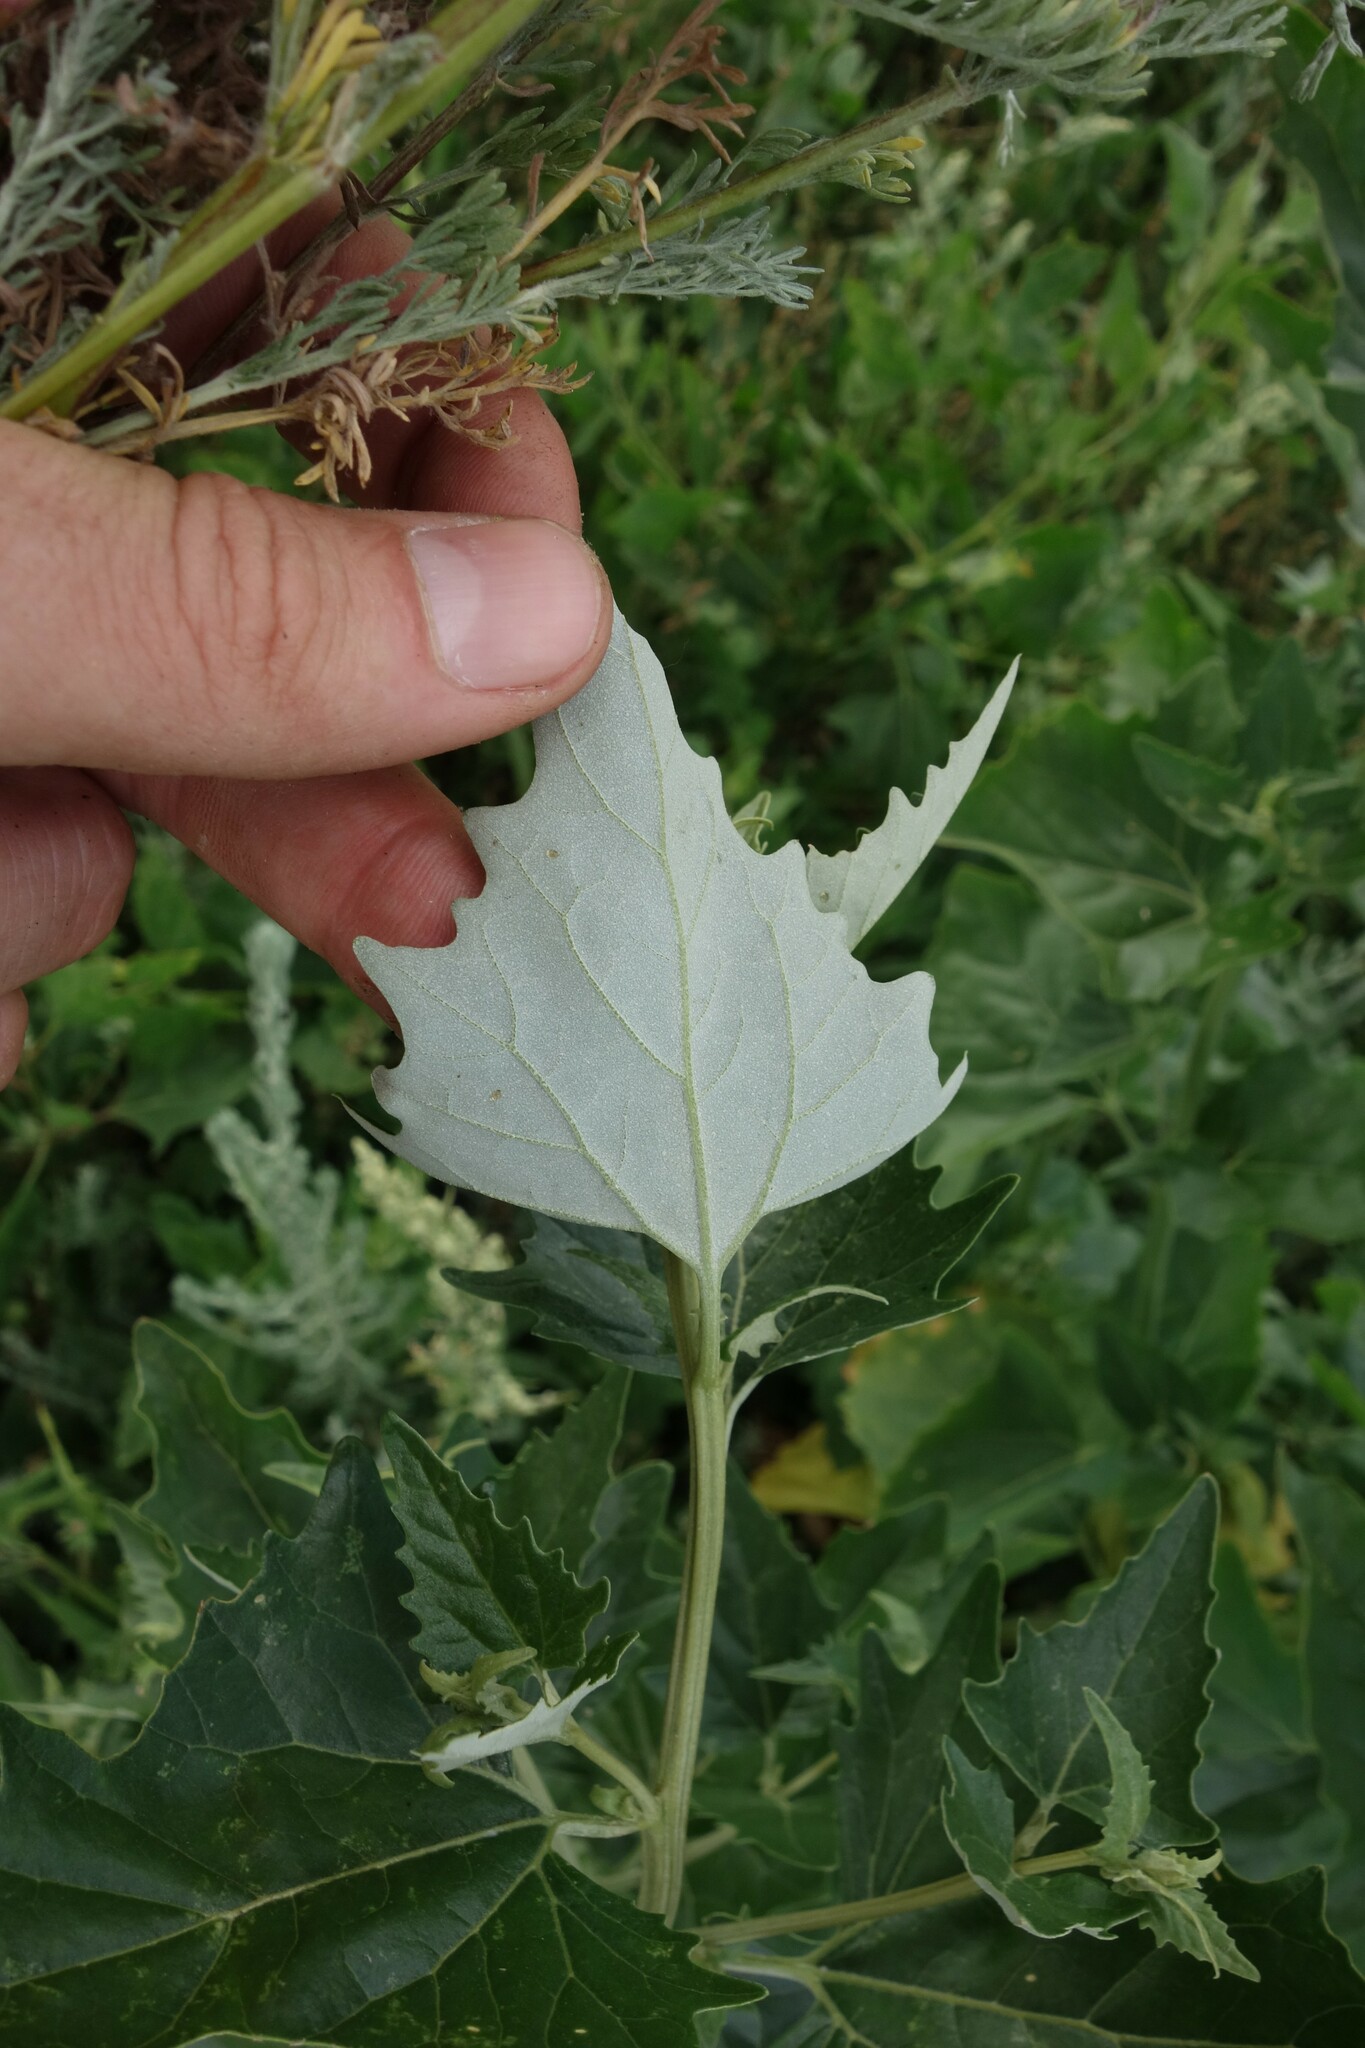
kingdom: Plantae
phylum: Tracheophyta
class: Magnoliopsida
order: Caryophyllales
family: Amaranthaceae
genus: Atriplex
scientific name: Atriplex sagittata
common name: Purple orache
